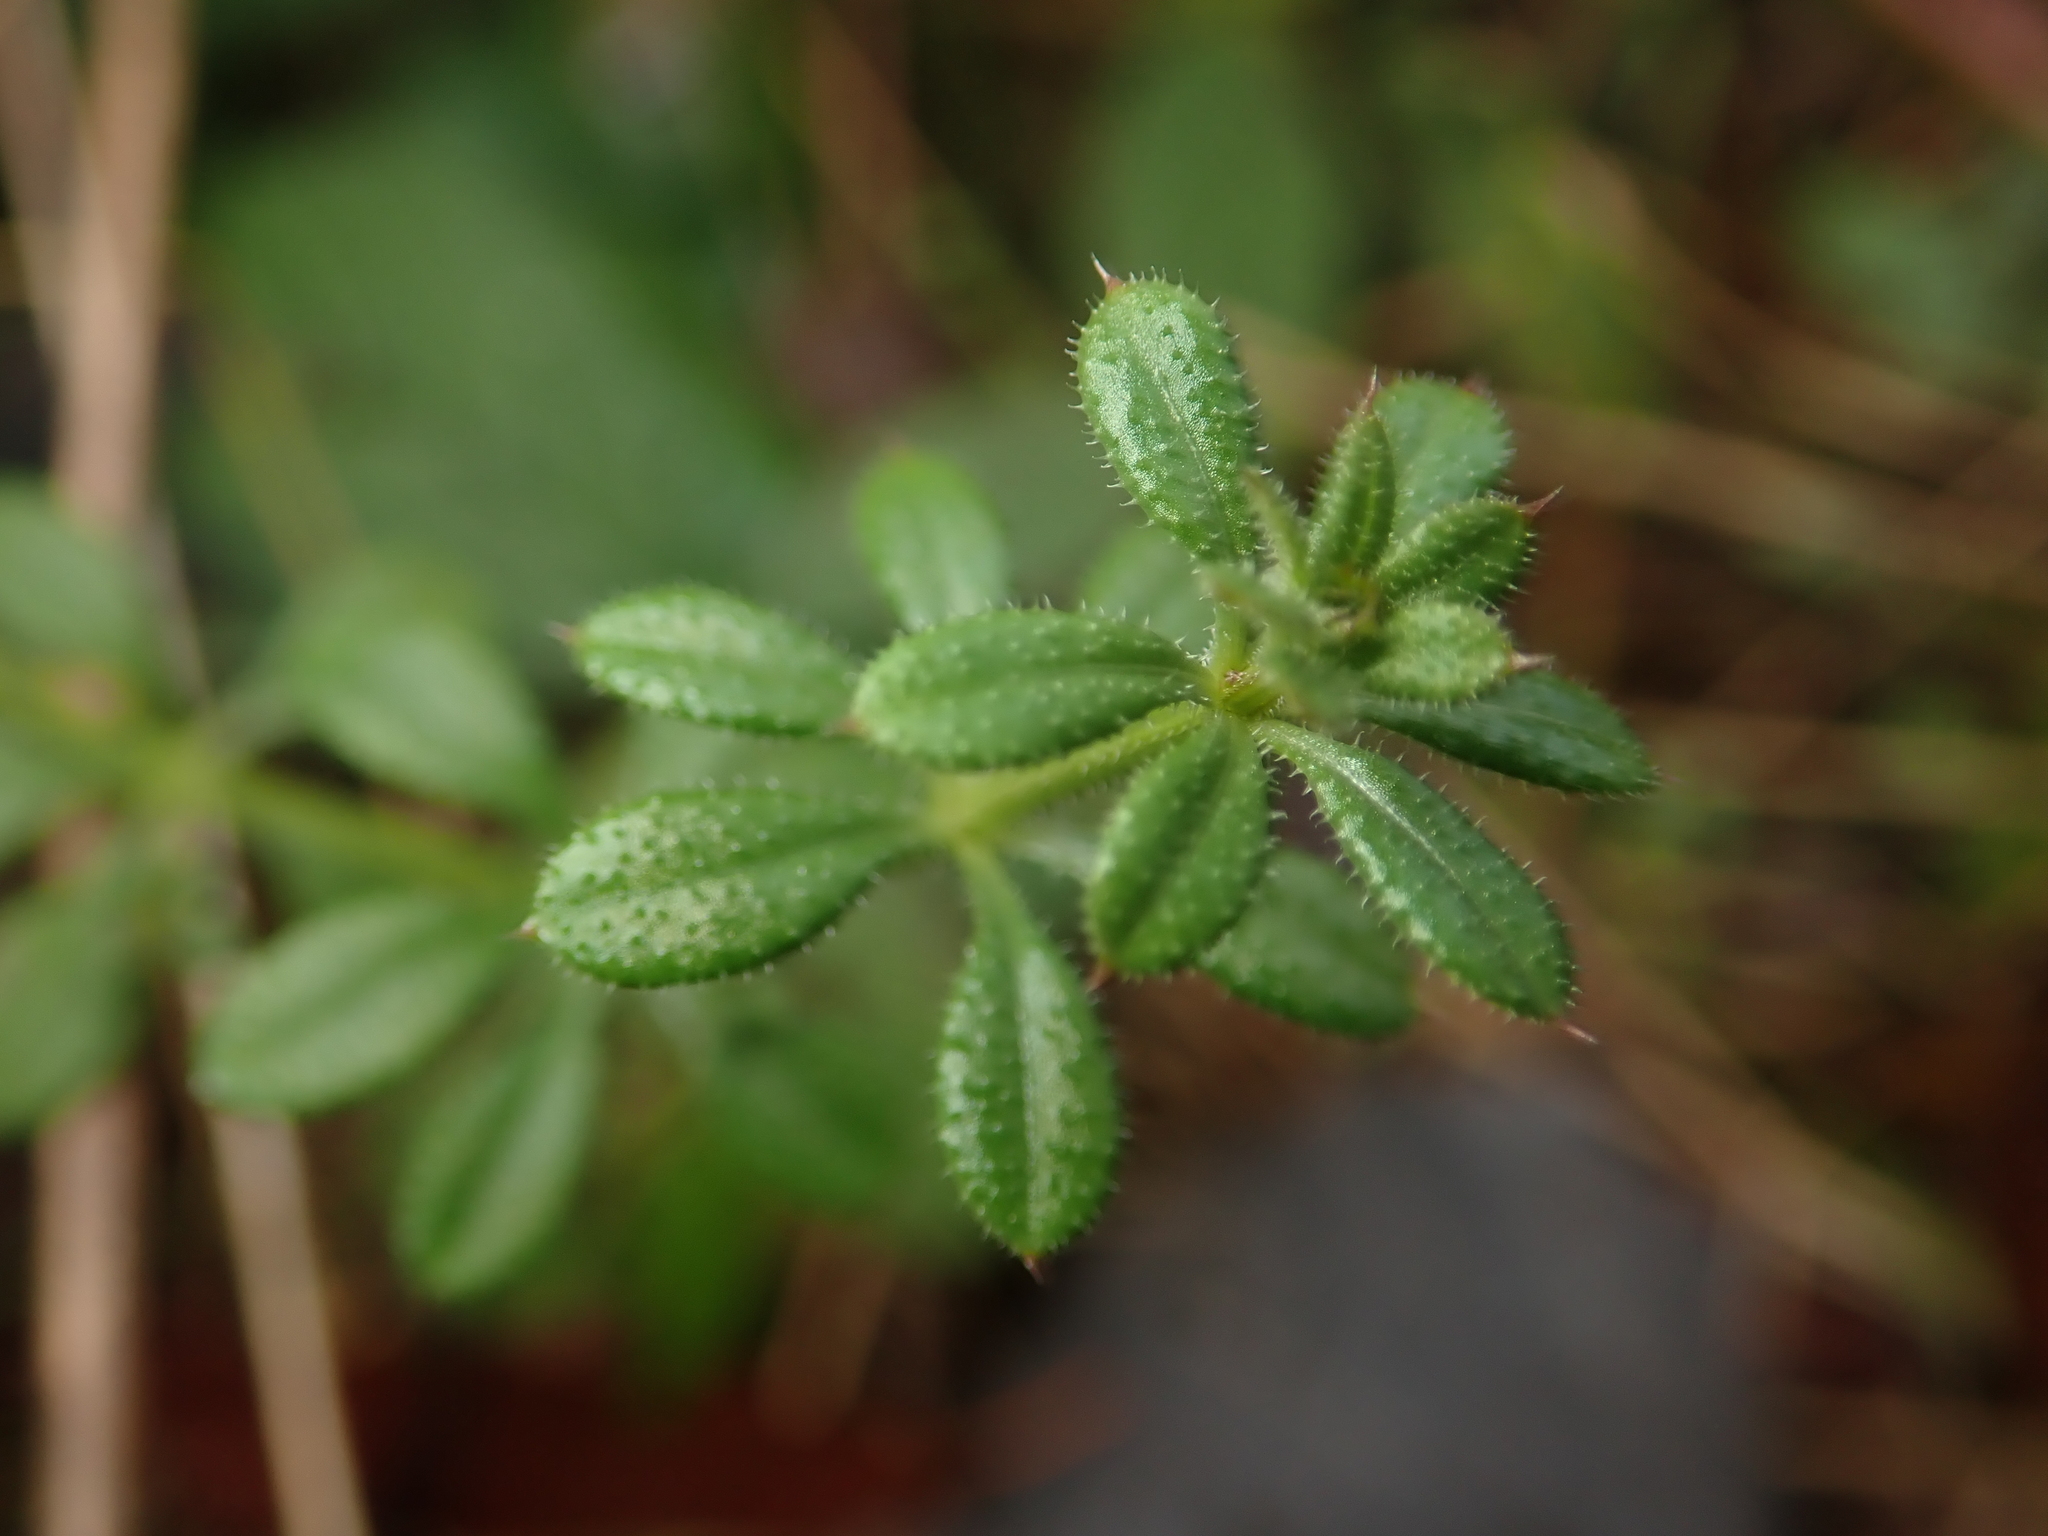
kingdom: Plantae
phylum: Tracheophyta
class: Magnoliopsida
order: Gentianales
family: Rubiaceae
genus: Galium
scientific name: Galium aparine
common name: Cleavers
